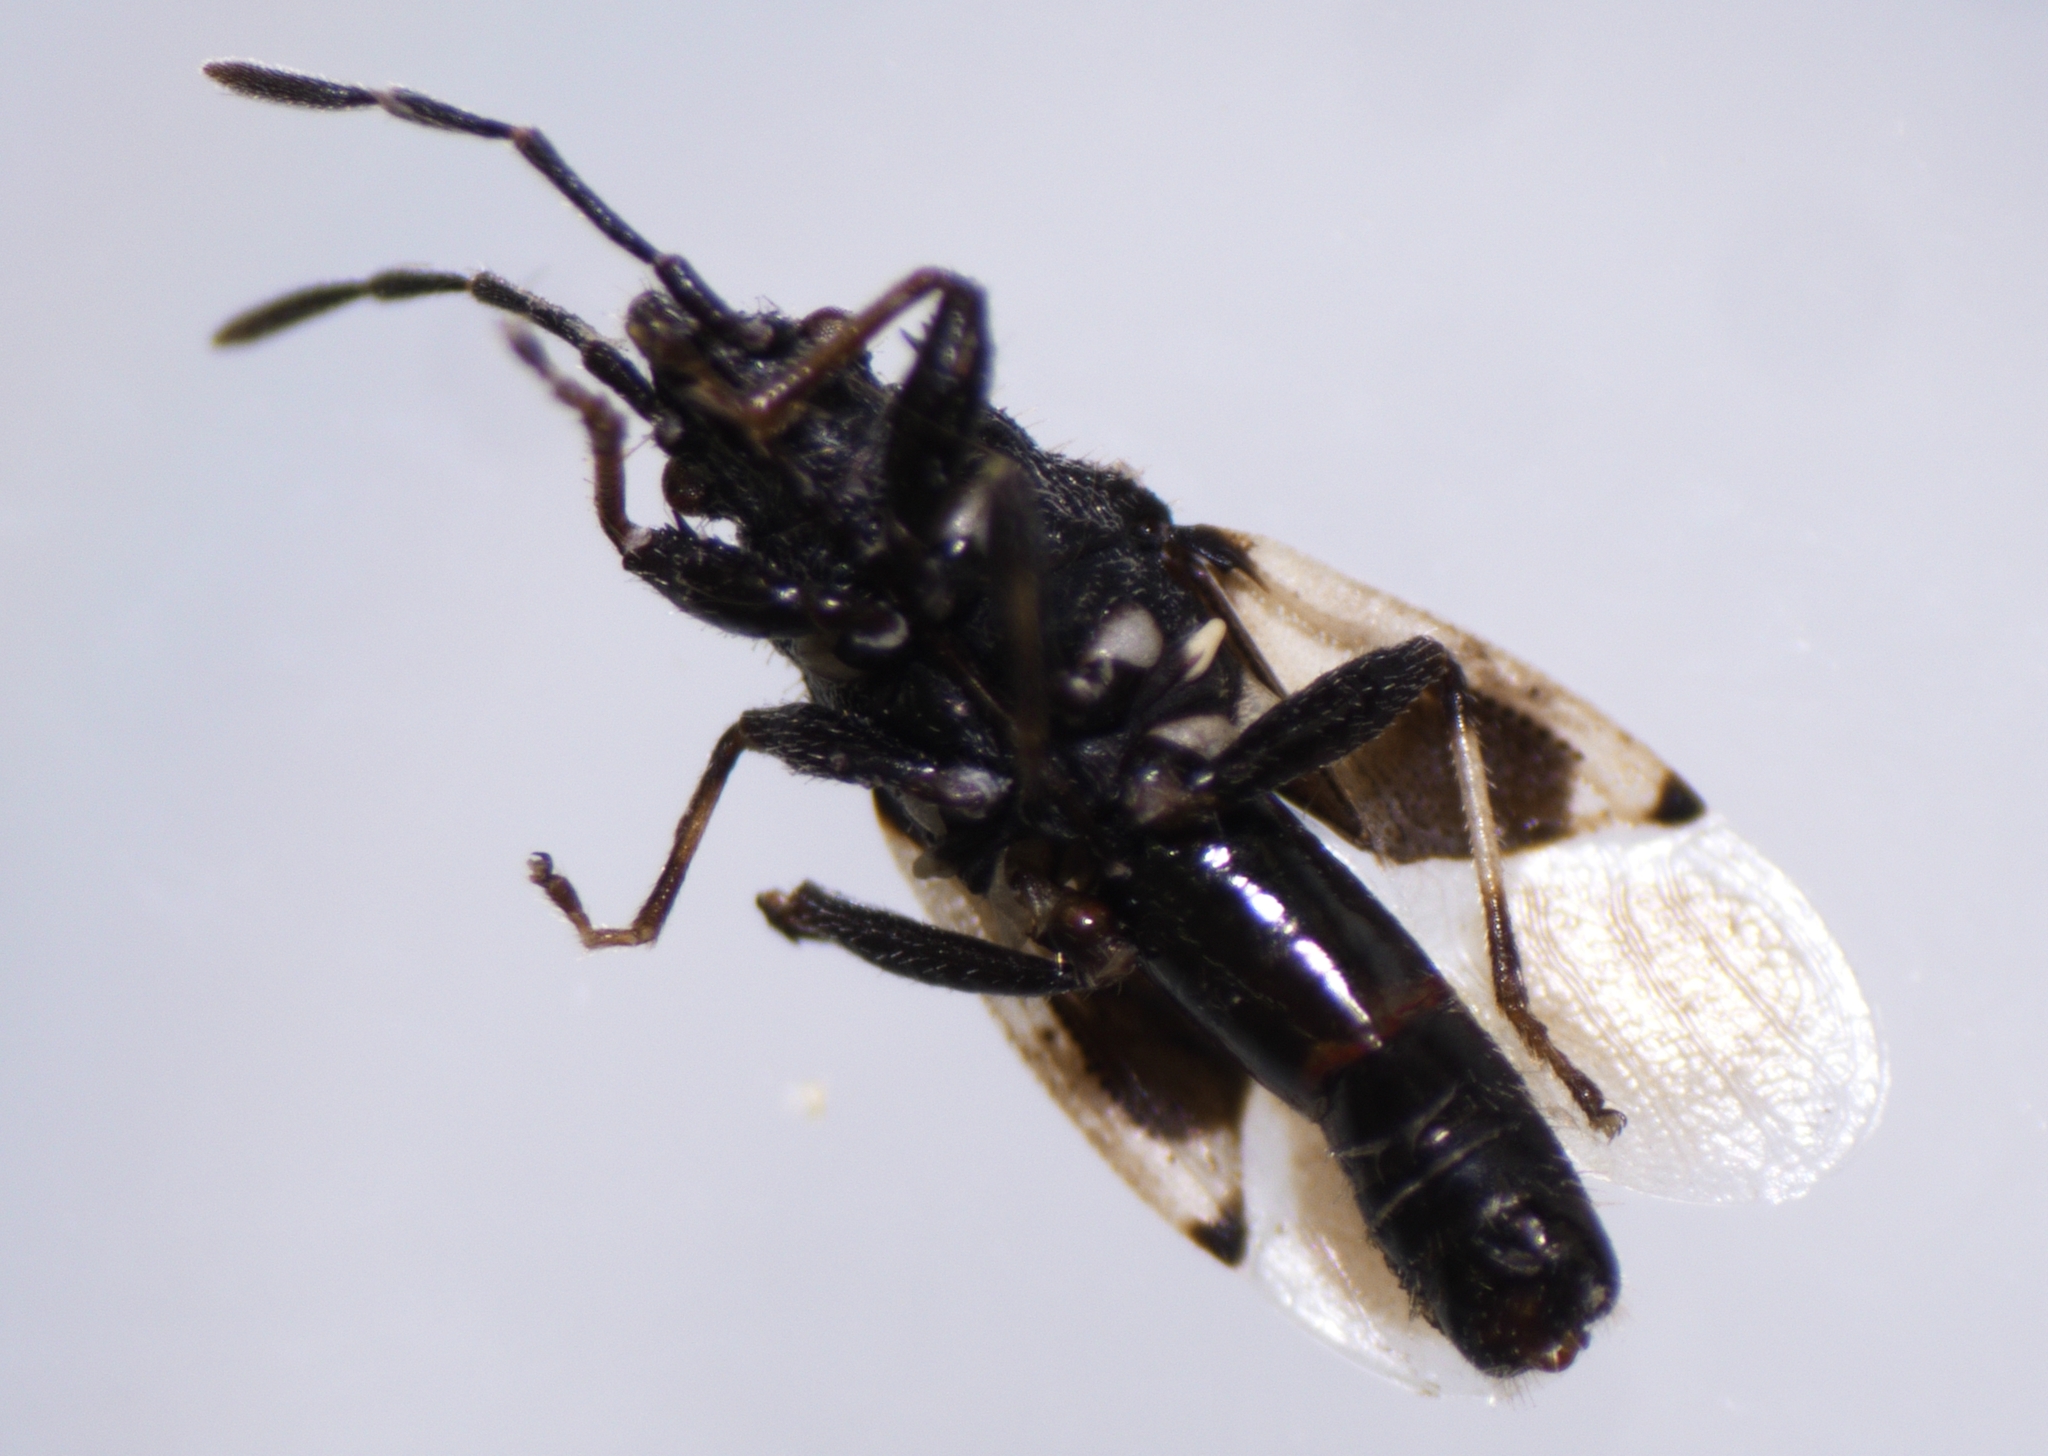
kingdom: Animalia
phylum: Arthropoda
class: Insecta
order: Hemiptera
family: Oxycarenidae
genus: Oxycarenus
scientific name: Oxycarenus luctuosus
